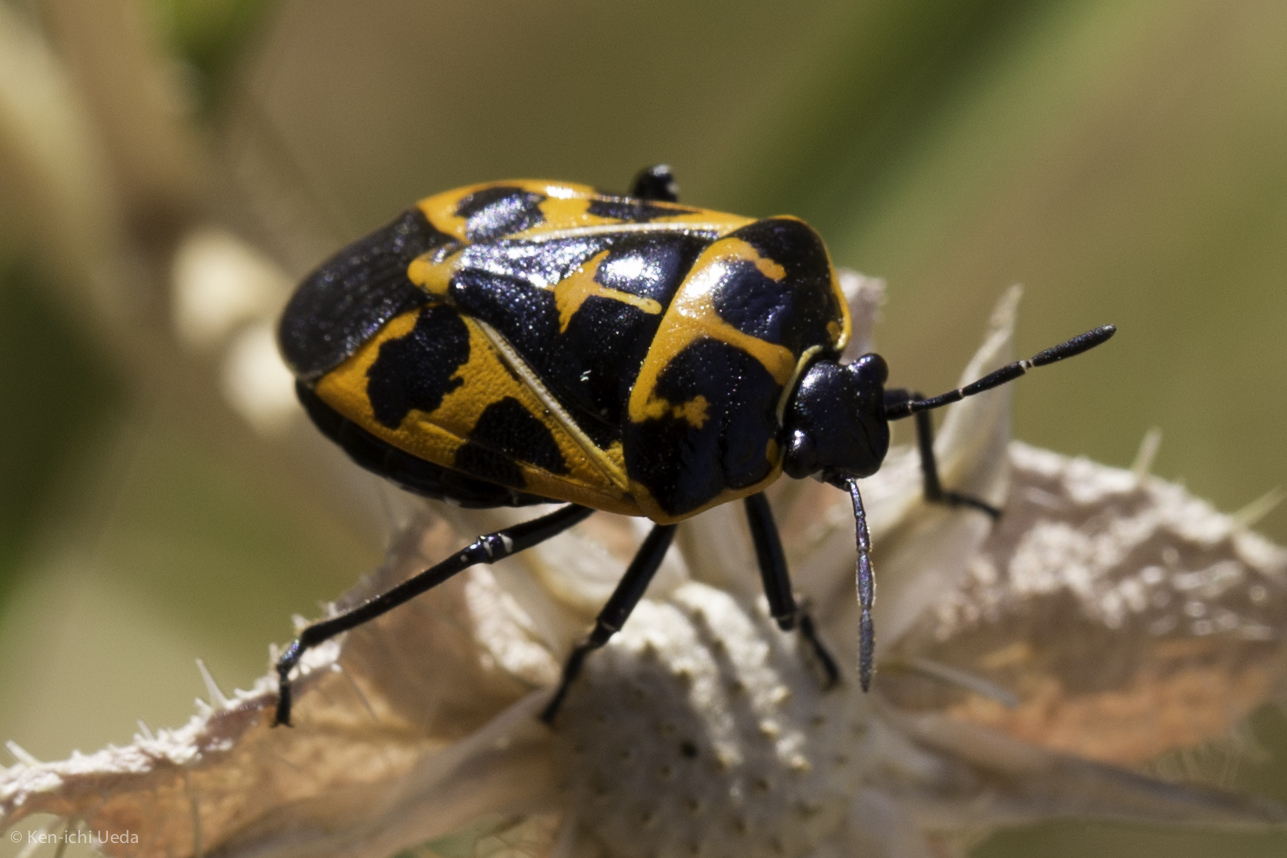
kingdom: Animalia
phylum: Arthropoda
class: Insecta
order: Hemiptera
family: Pentatomidae
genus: Murgantia
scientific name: Murgantia histrionica
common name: Harlequin bug
